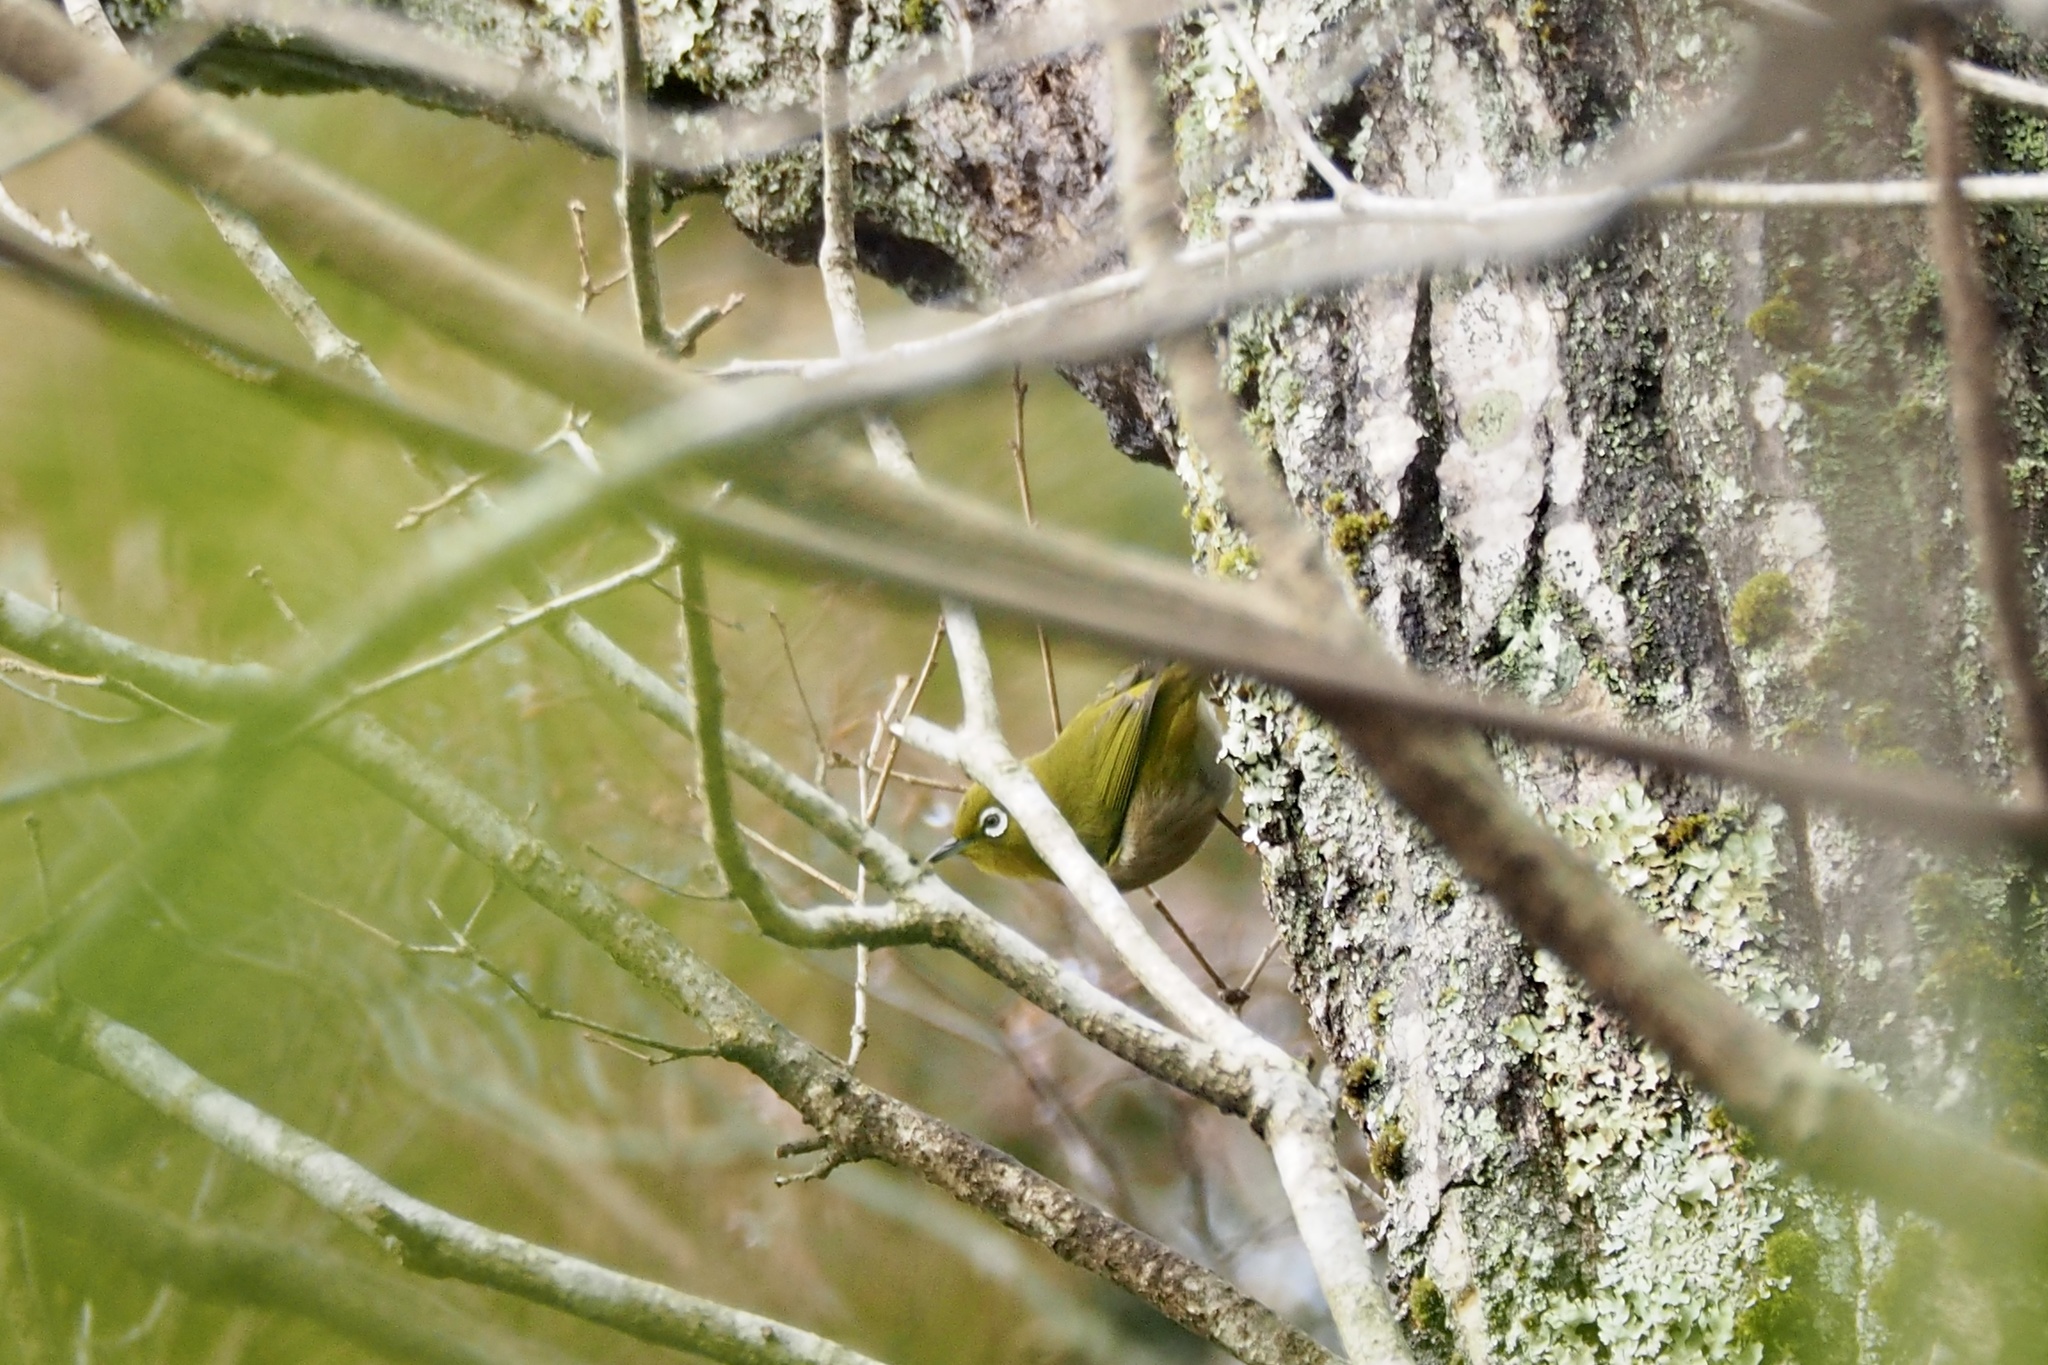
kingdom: Animalia
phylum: Chordata
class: Aves
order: Passeriformes
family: Zosteropidae
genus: Zosterops
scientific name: Zosterops japonicus
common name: Japanese white-eye
